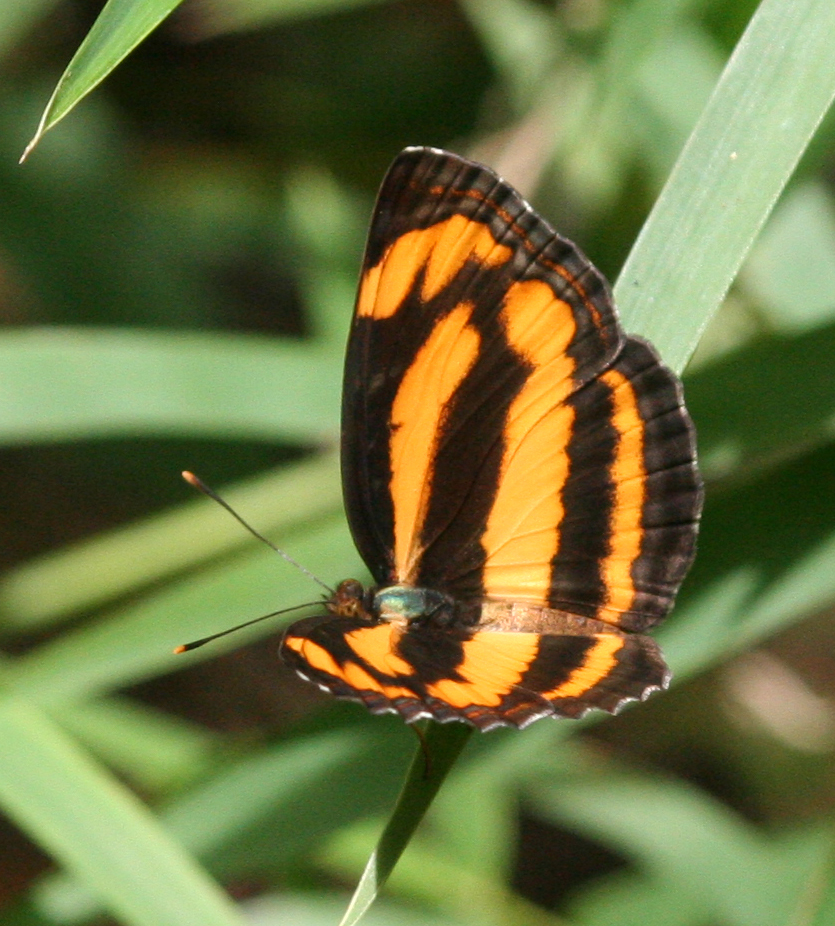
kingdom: Animalia
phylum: Arthropoda
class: Insecta
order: Lepidoptera
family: Nymphalidae
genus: Pantoporia
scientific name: Pantoporia hordonia
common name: Common lascar
